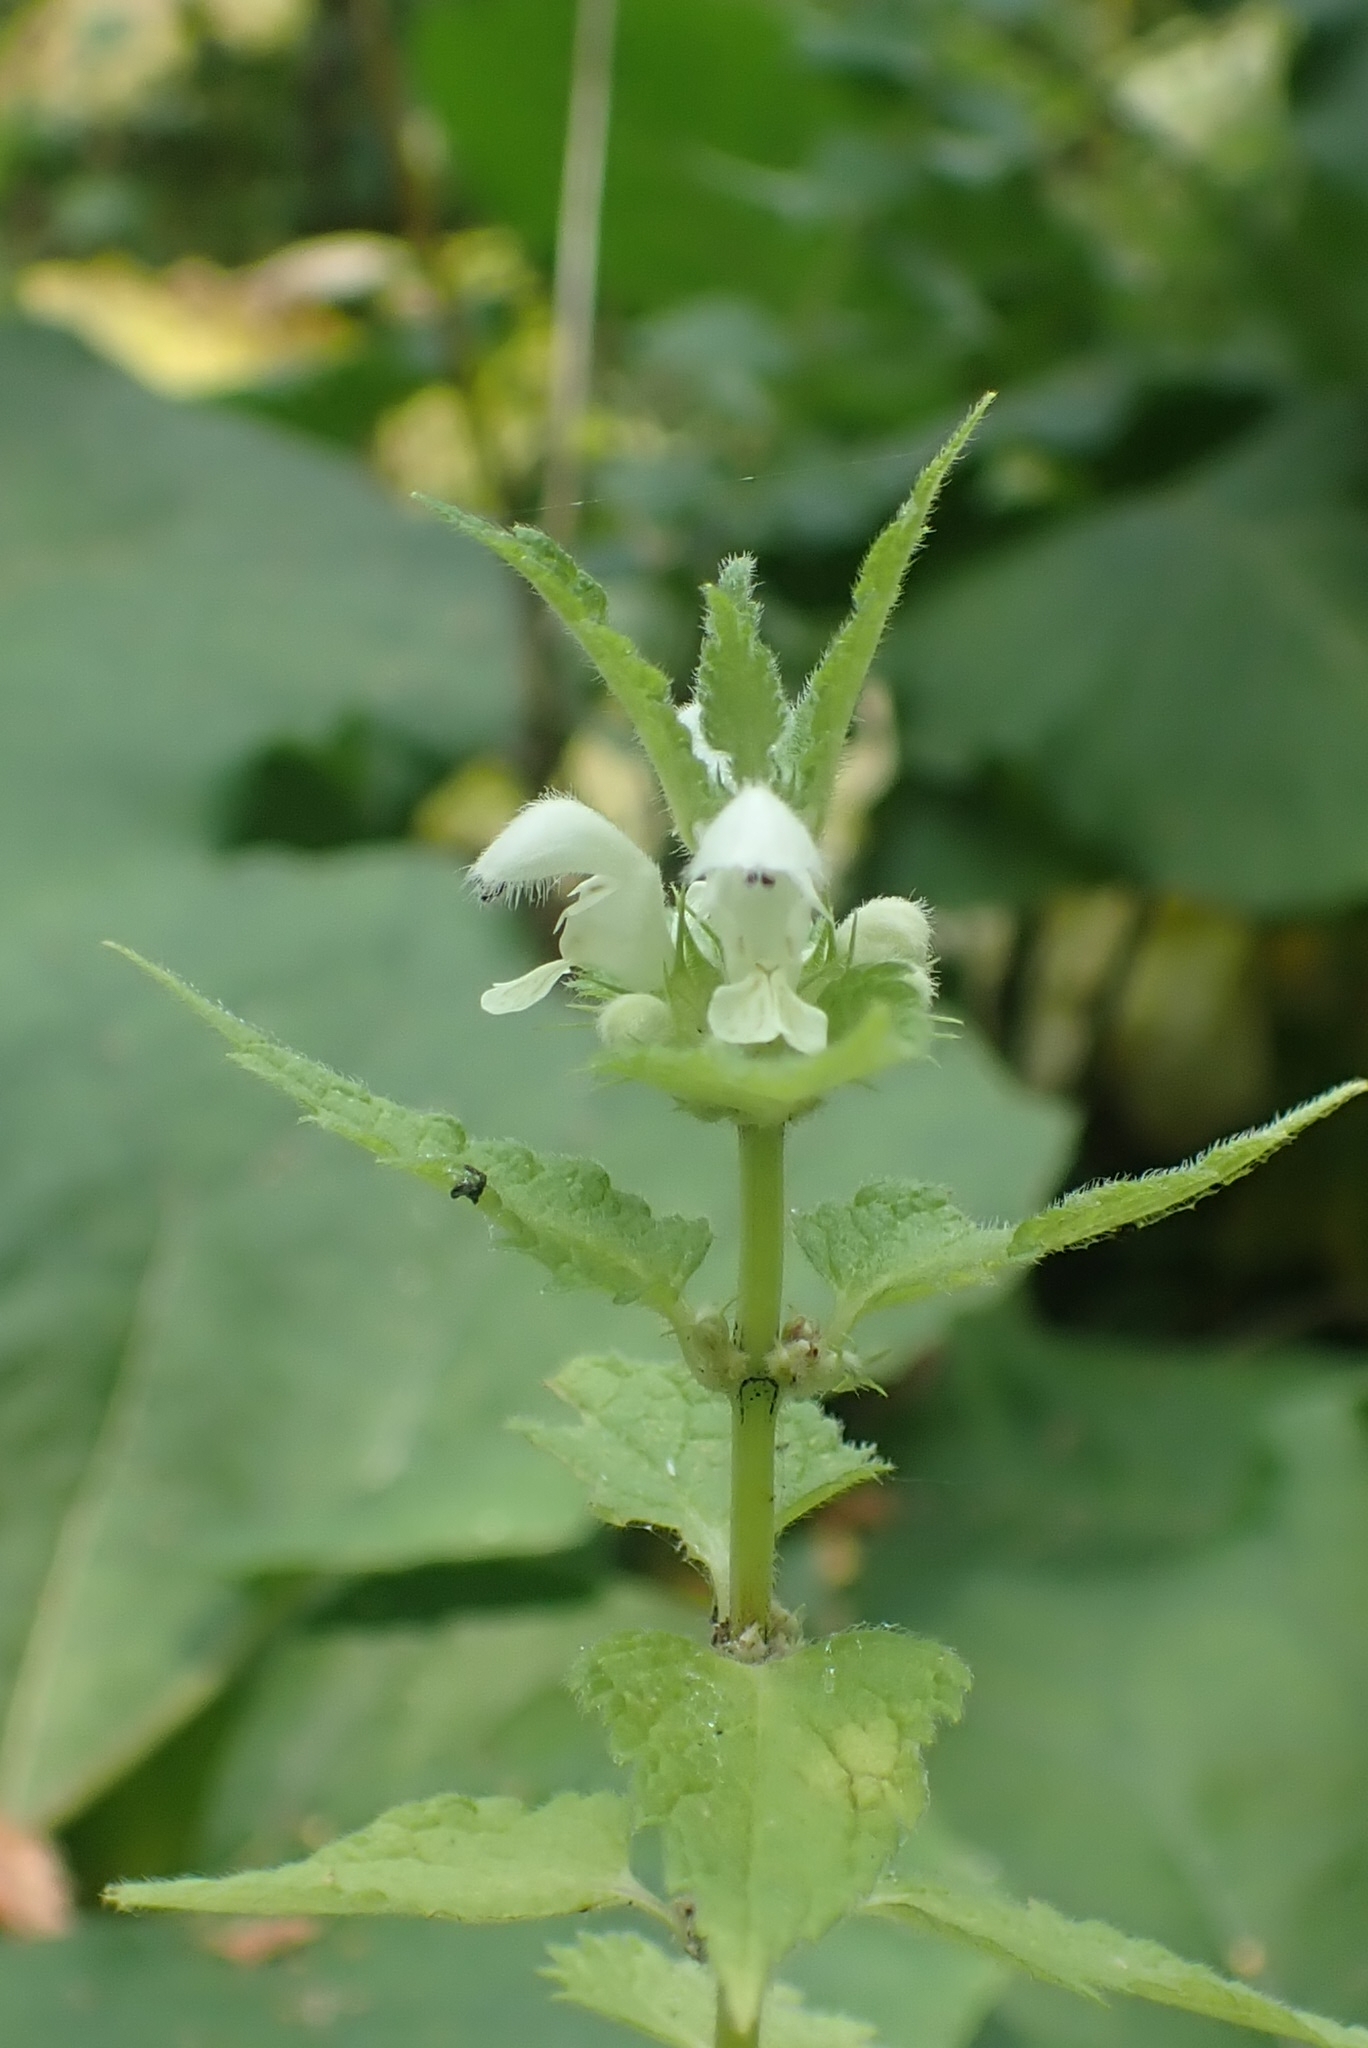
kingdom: Plantae
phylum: Tracheophyta
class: Magnoliopsida
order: Lamiales
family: Lamiaceae
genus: Lamium
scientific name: Lamium album
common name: White dead-nettle
